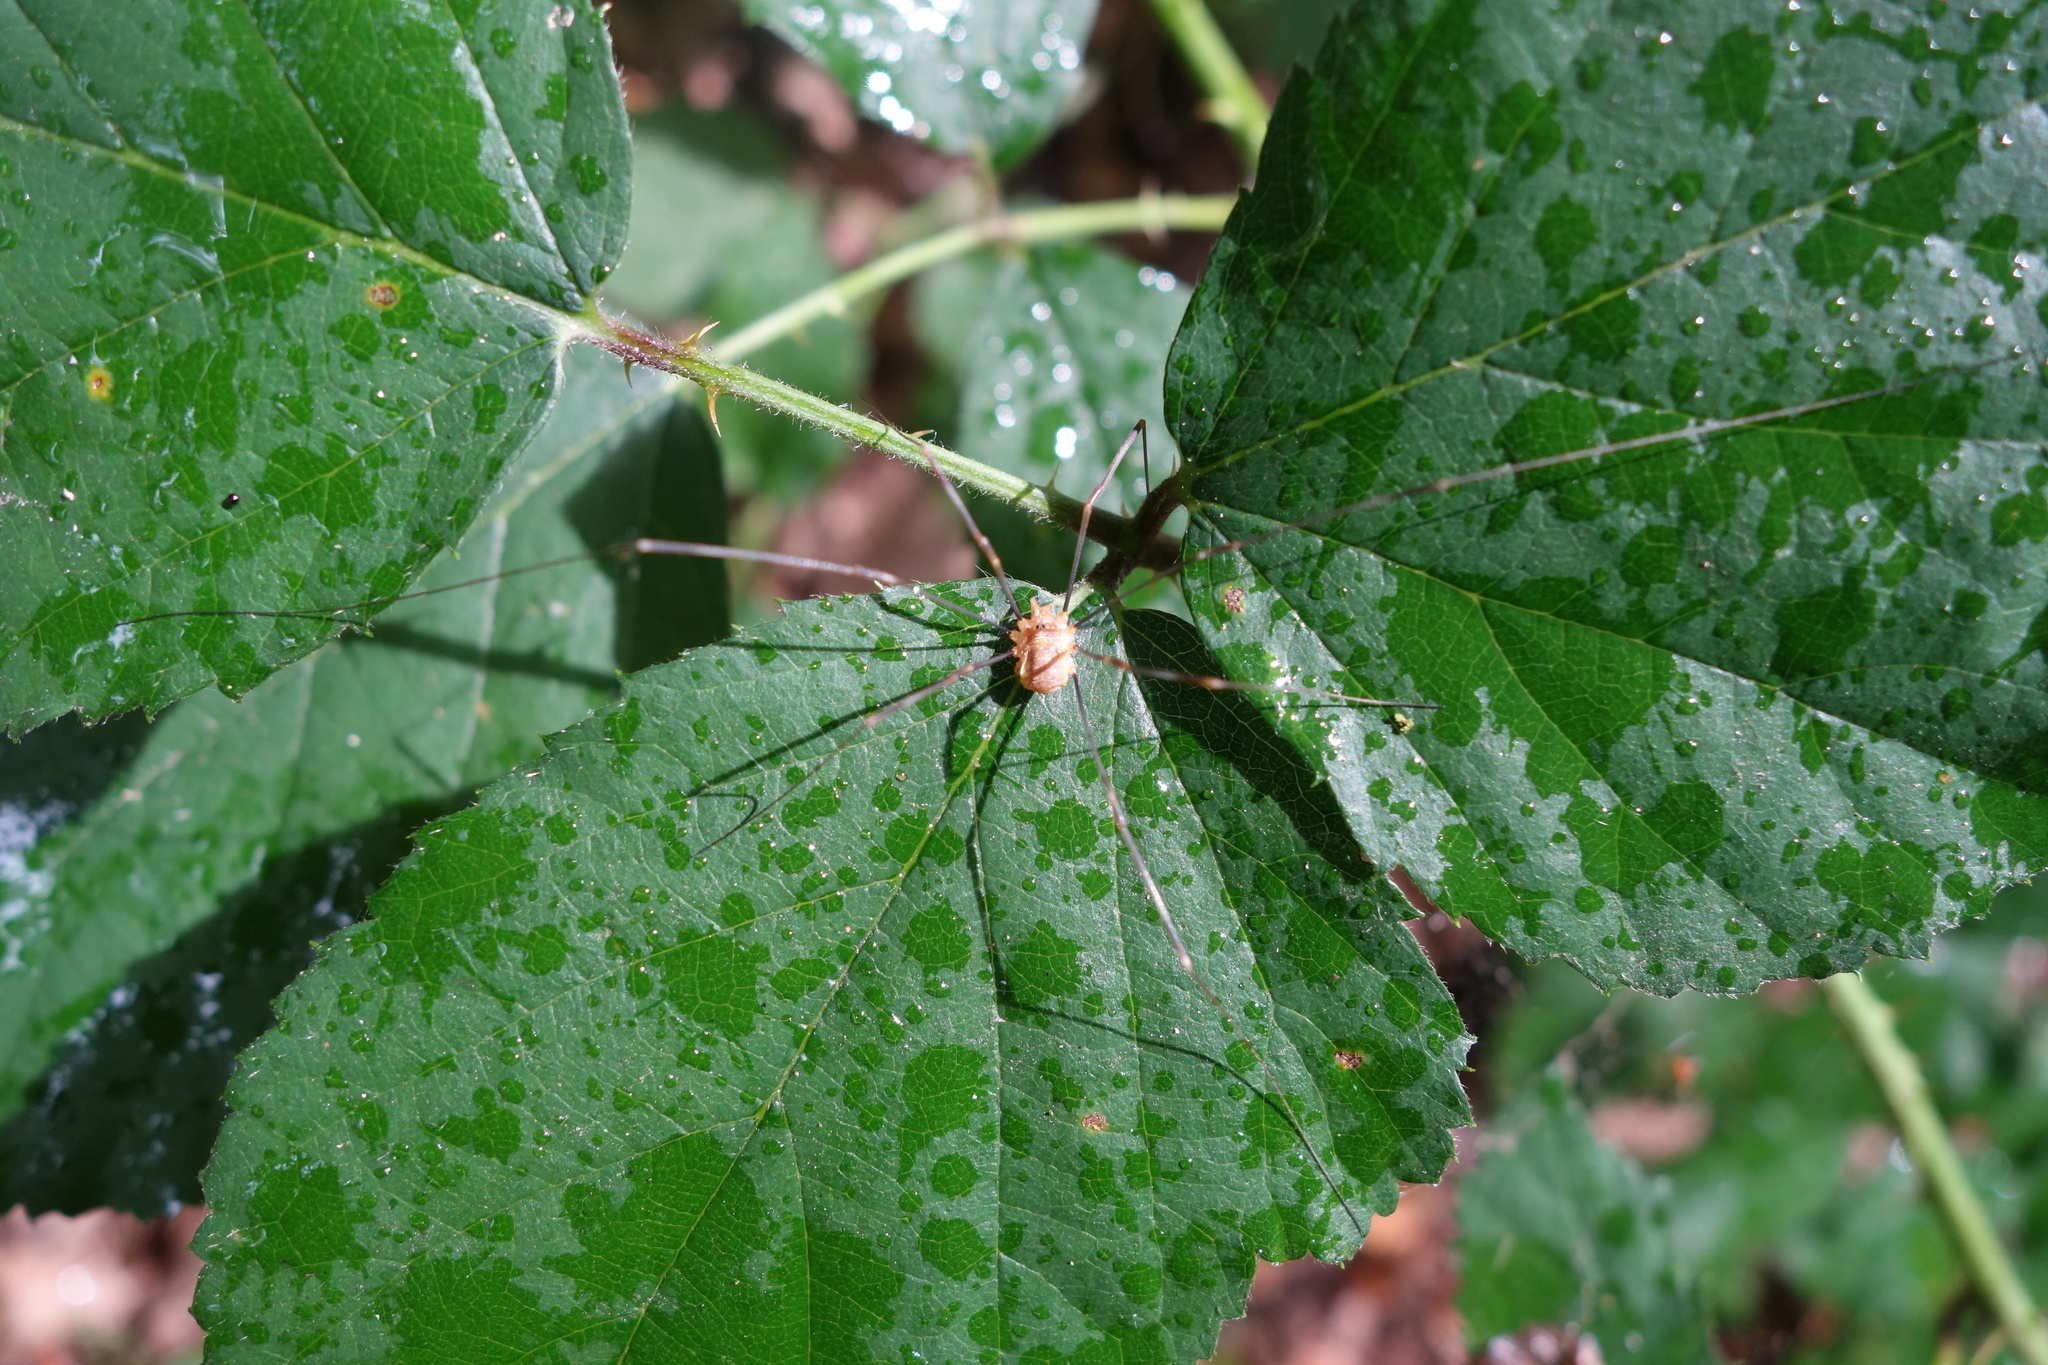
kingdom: Animalia
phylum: Arthropoda
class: Arachnida
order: Opiliones
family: Phalangiidae
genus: Opilio
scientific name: Opilio canestrinii
